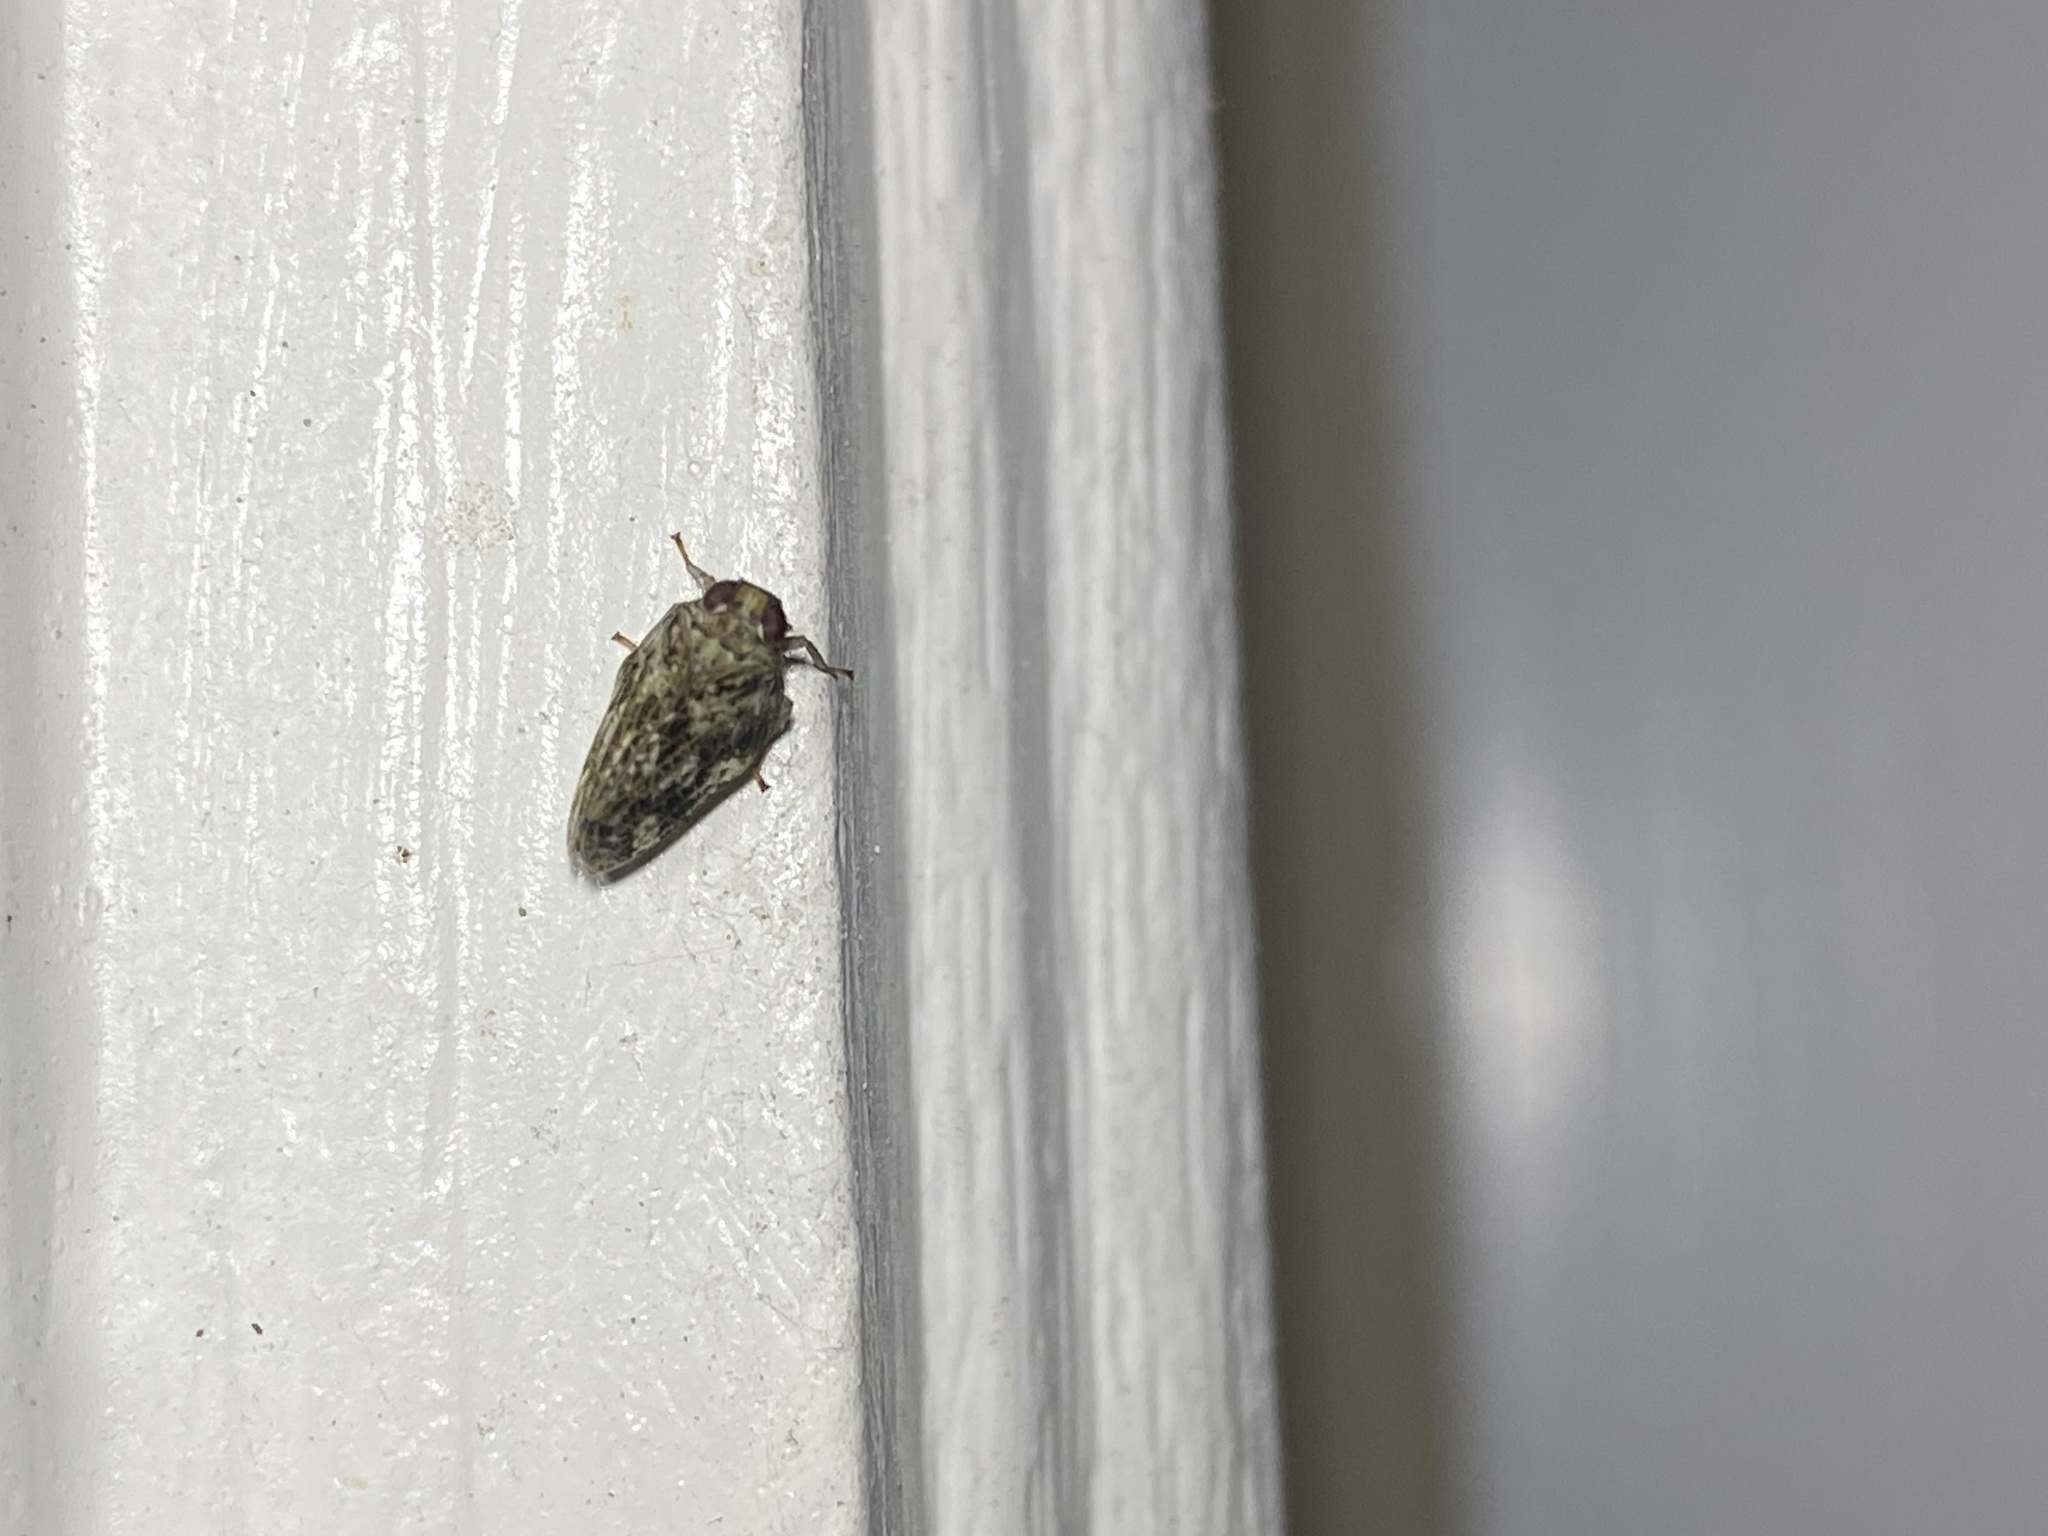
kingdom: Animalia
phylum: Arthropoda
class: Insecta
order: Hemiptera
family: Issidae
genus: Thionia
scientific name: Thionia bullata
